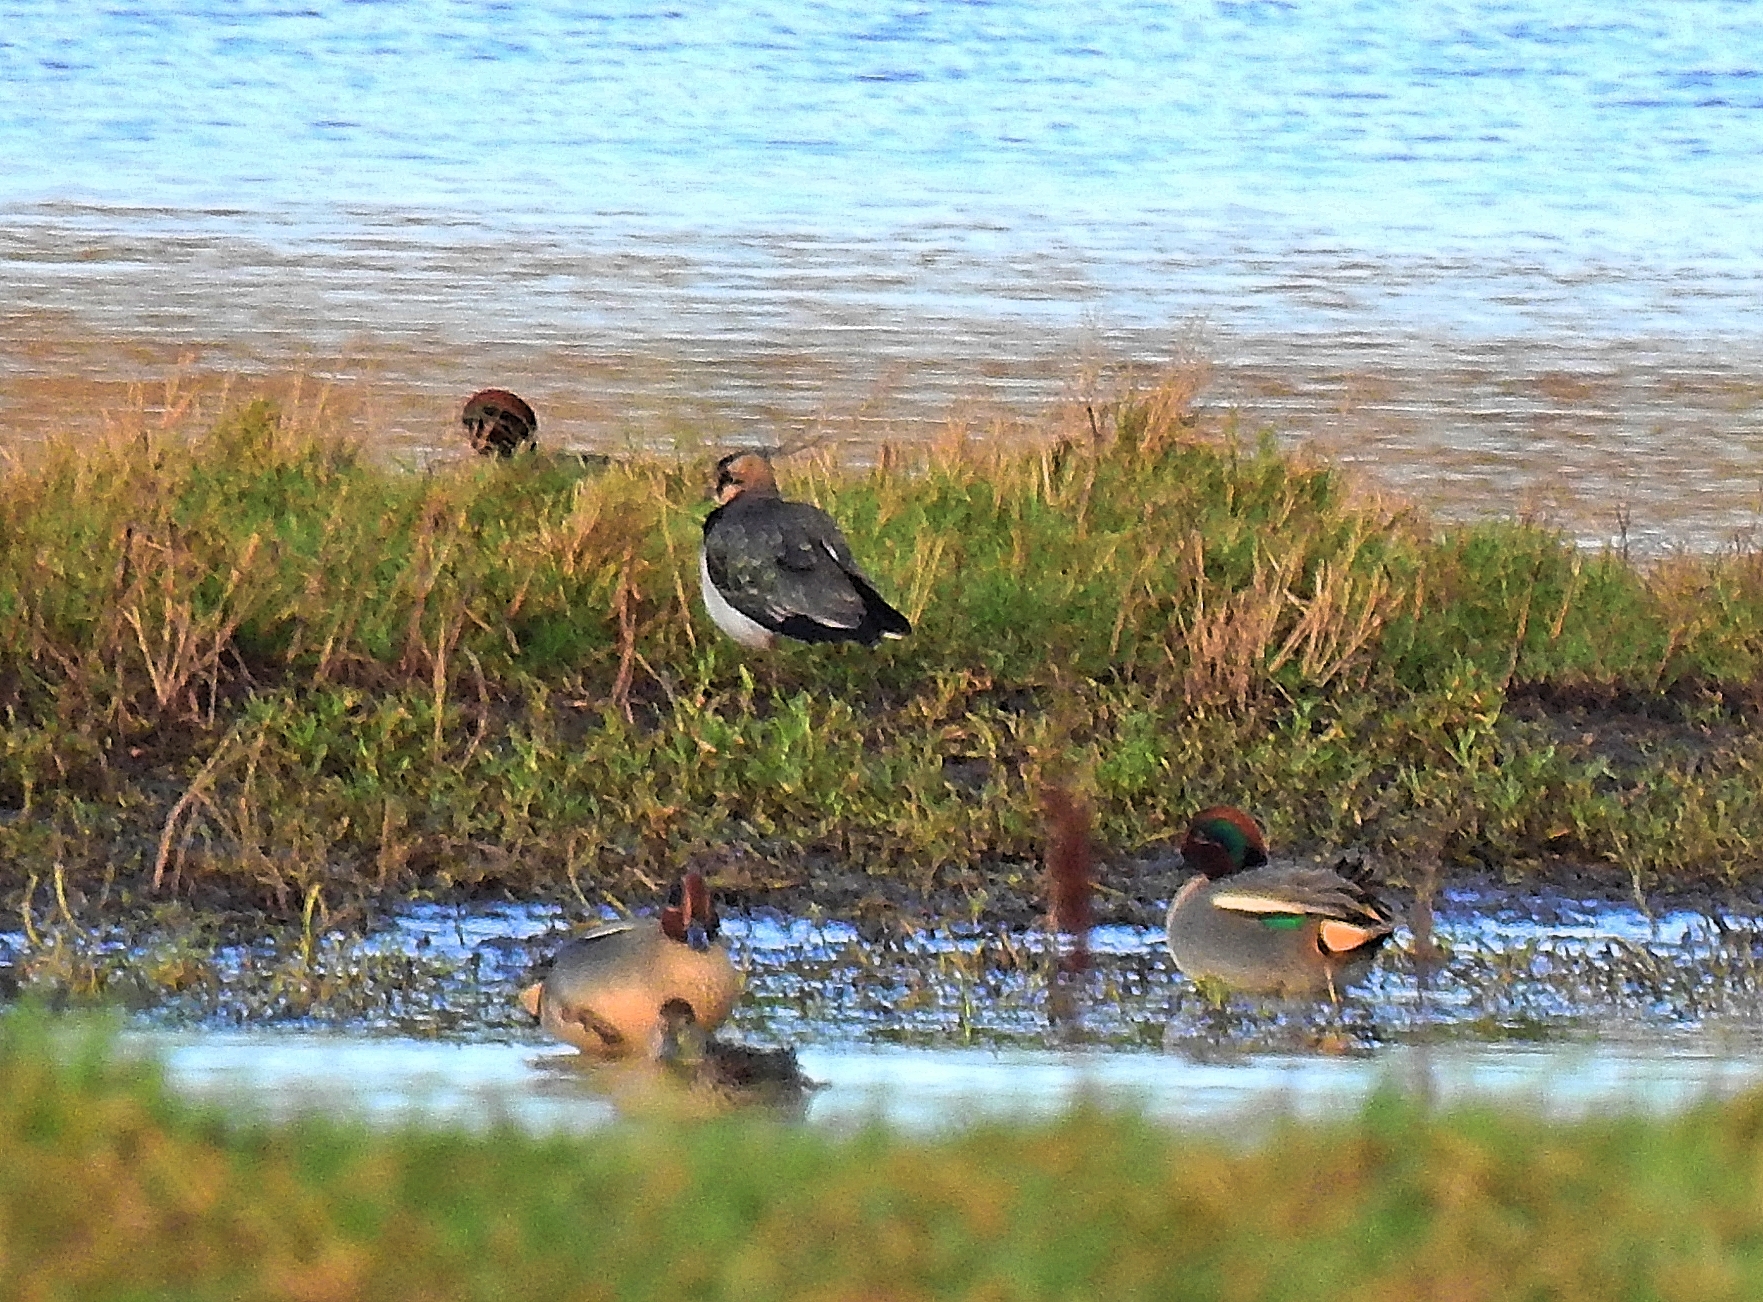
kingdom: Animalia
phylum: Chordata
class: Aves
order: Anseriformes
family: Anatidae
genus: Anas
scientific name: Anas crecca
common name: Eurasian teal
